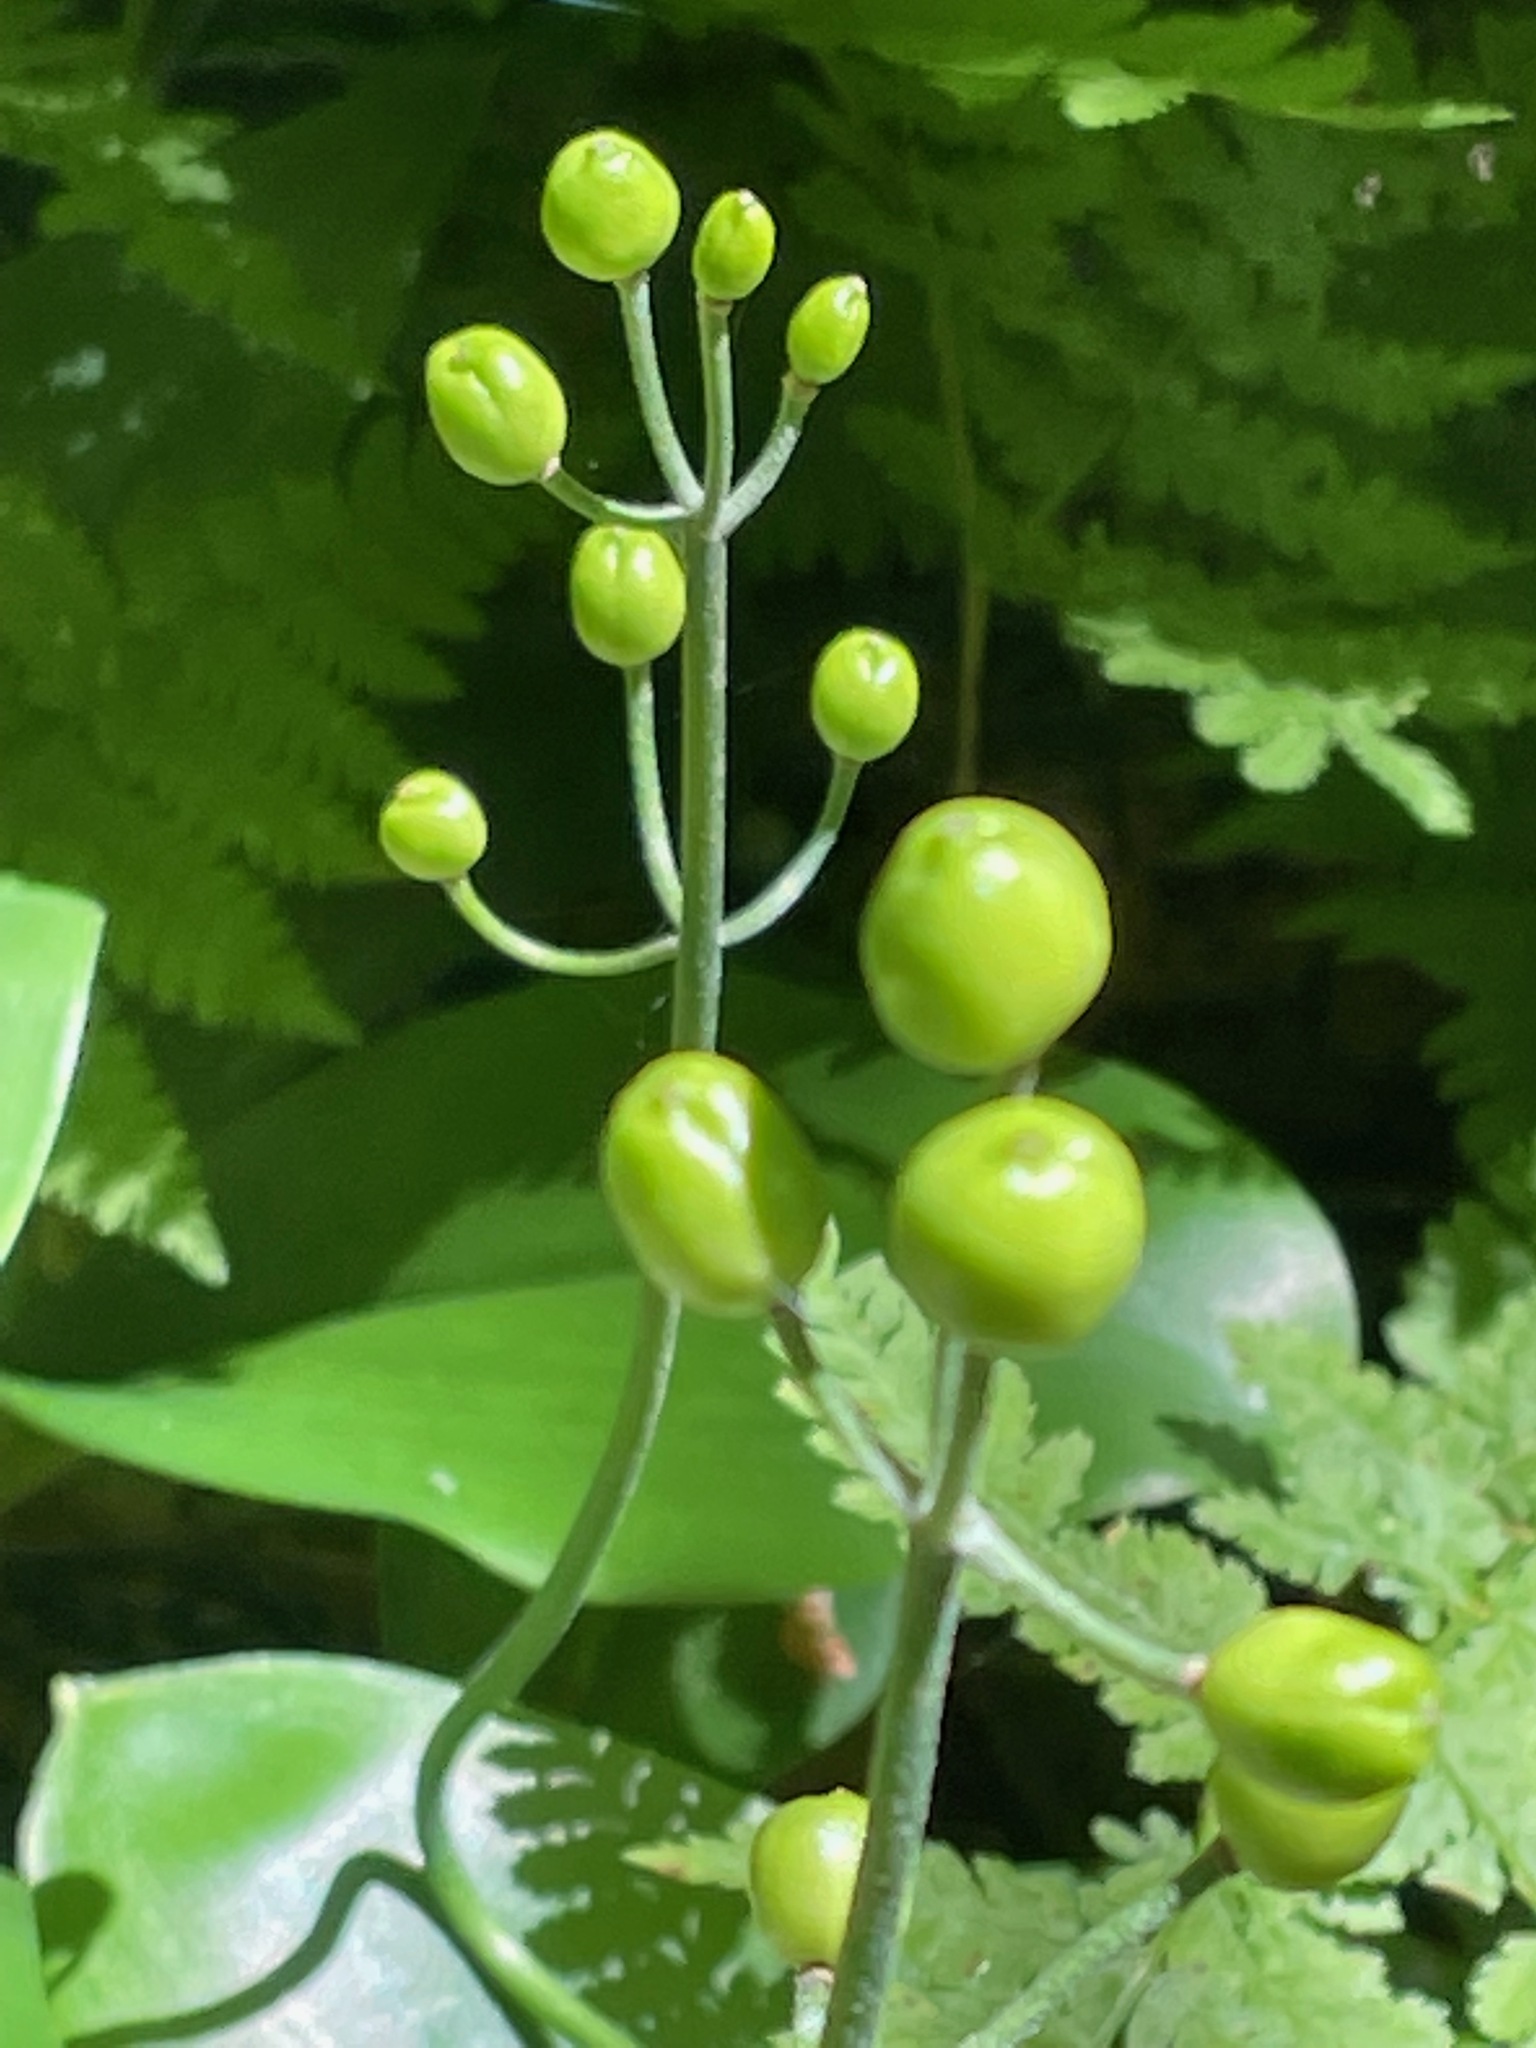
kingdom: Plantae
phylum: Tracheophyta
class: Liliopsida
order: Liliales
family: Liliaceae
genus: Clintonia
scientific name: Clintonia borealis
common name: Yellow clintonia
